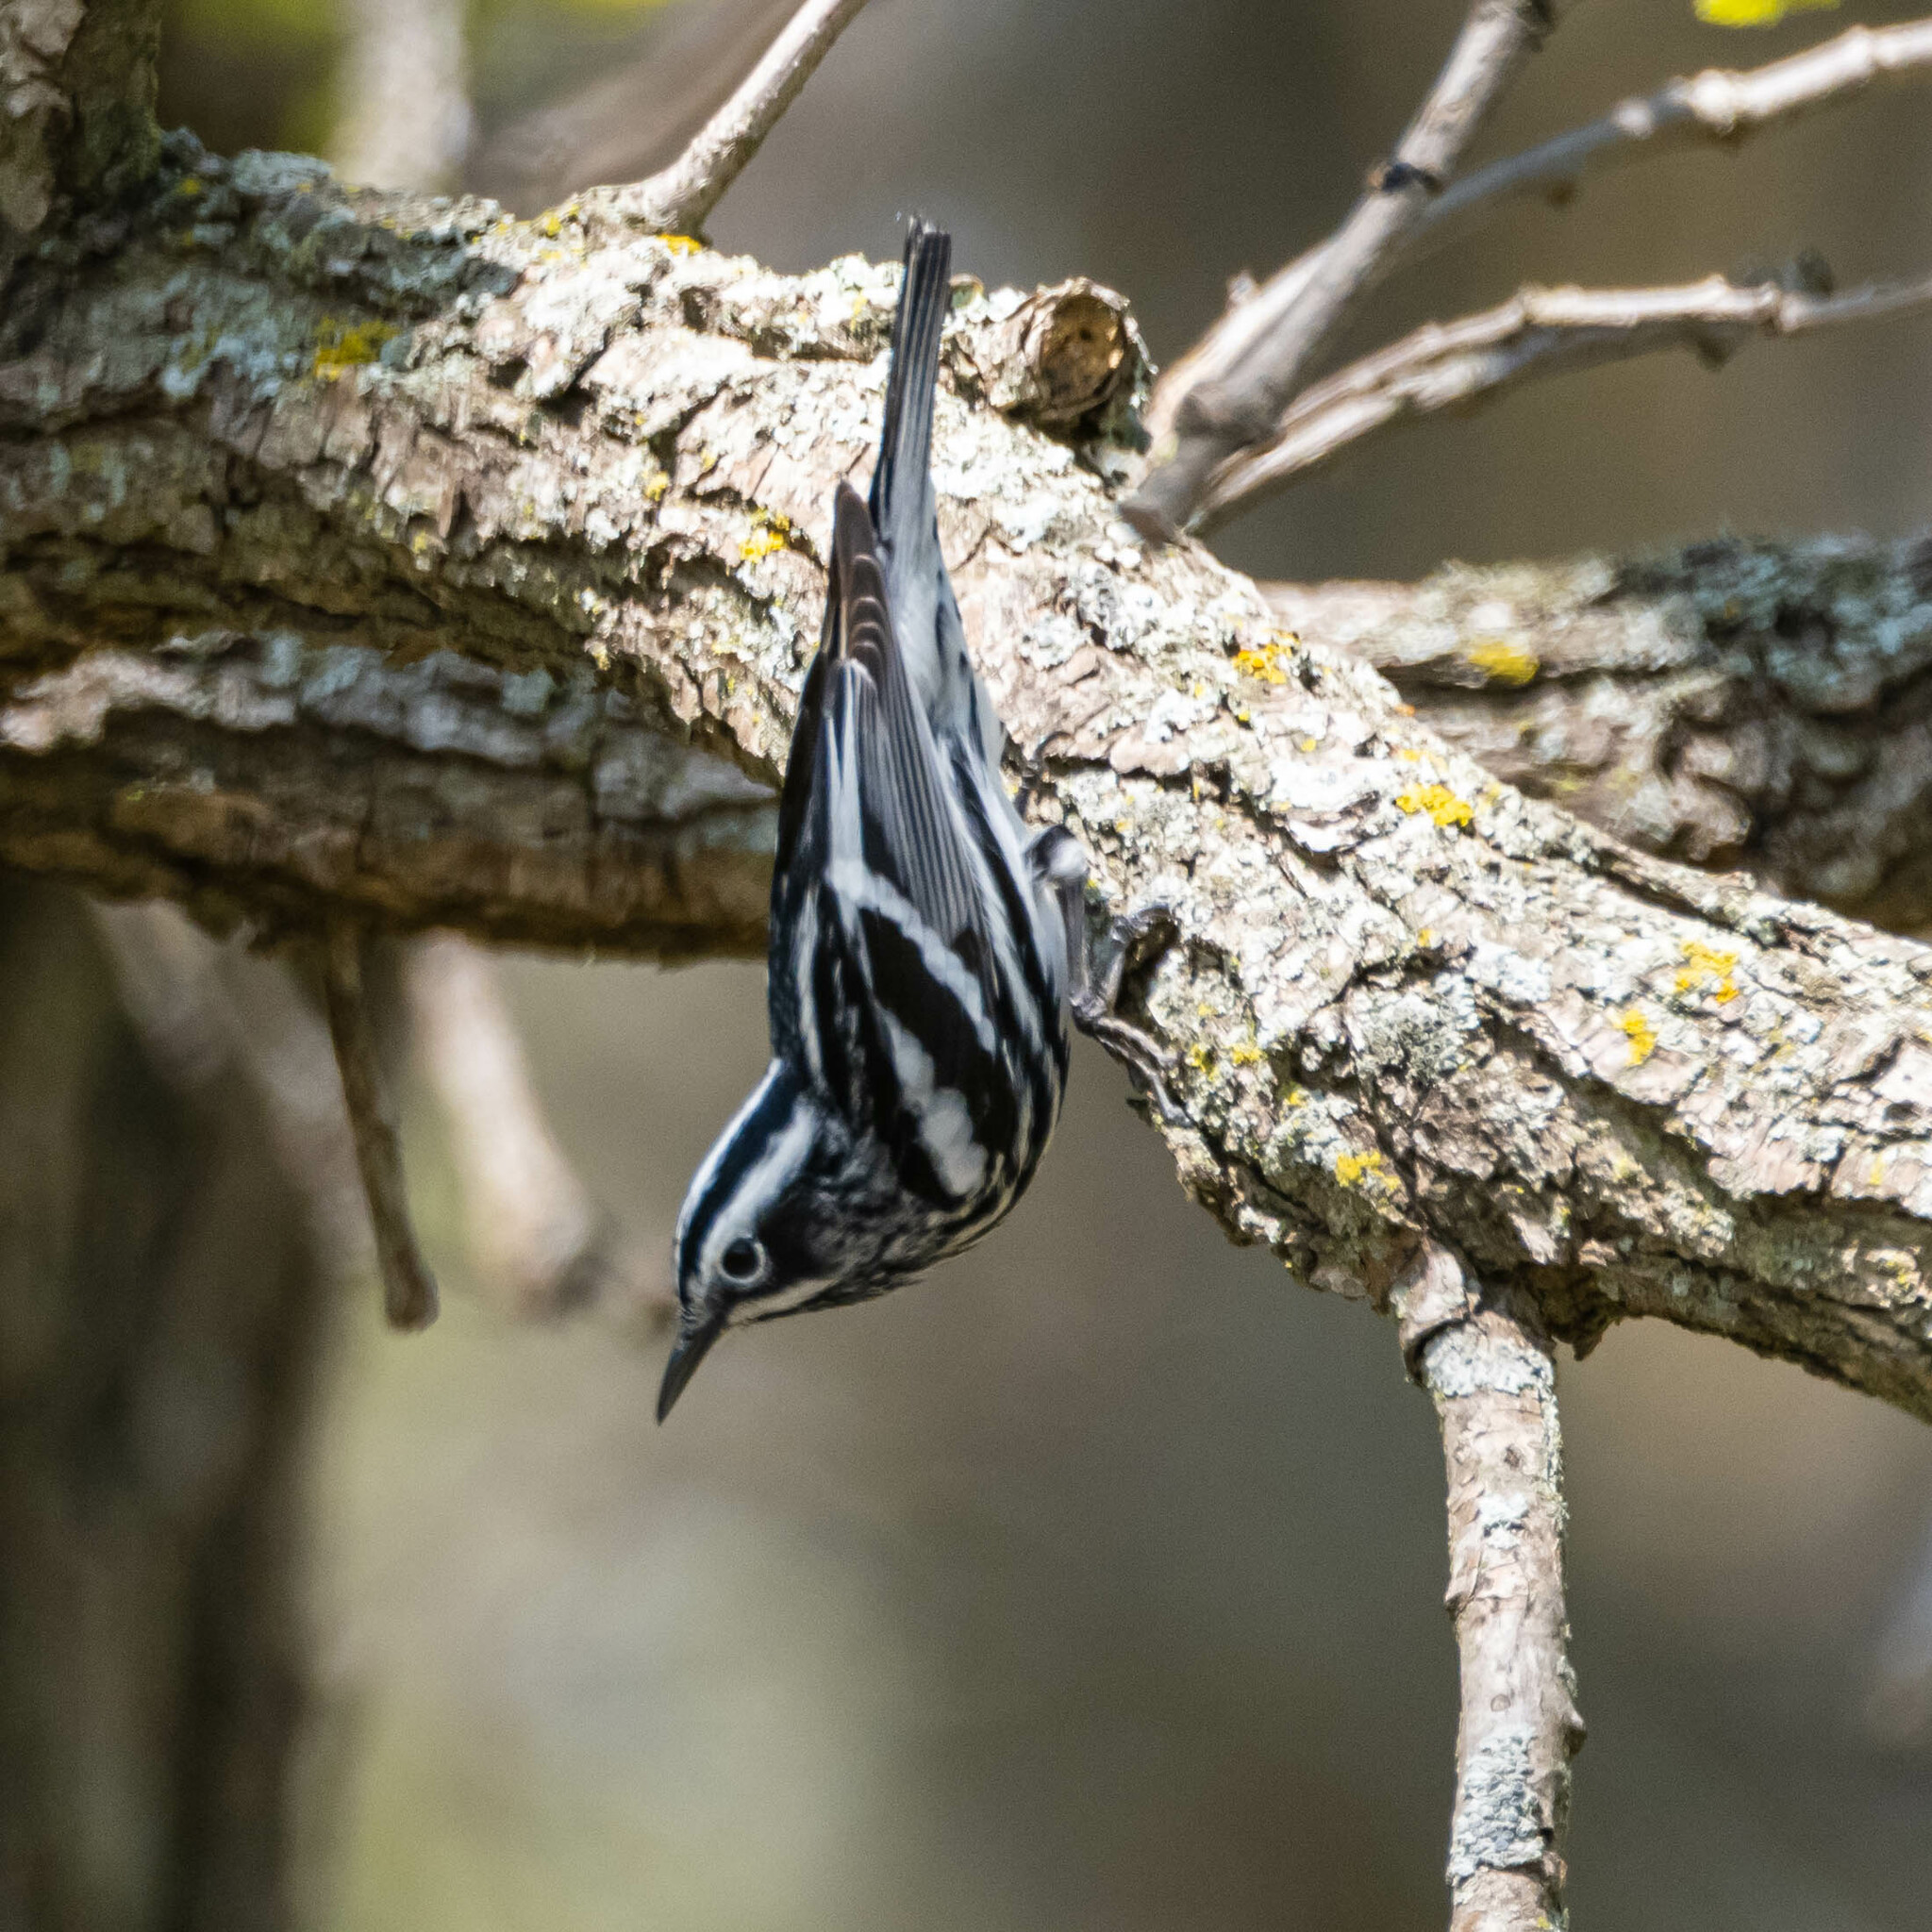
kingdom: Animalia
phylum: Chordata
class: Aves
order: Passeriformes
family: Parulidae
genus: Mniotilta
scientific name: Mniotilta varia
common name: Black-and-white warbler
